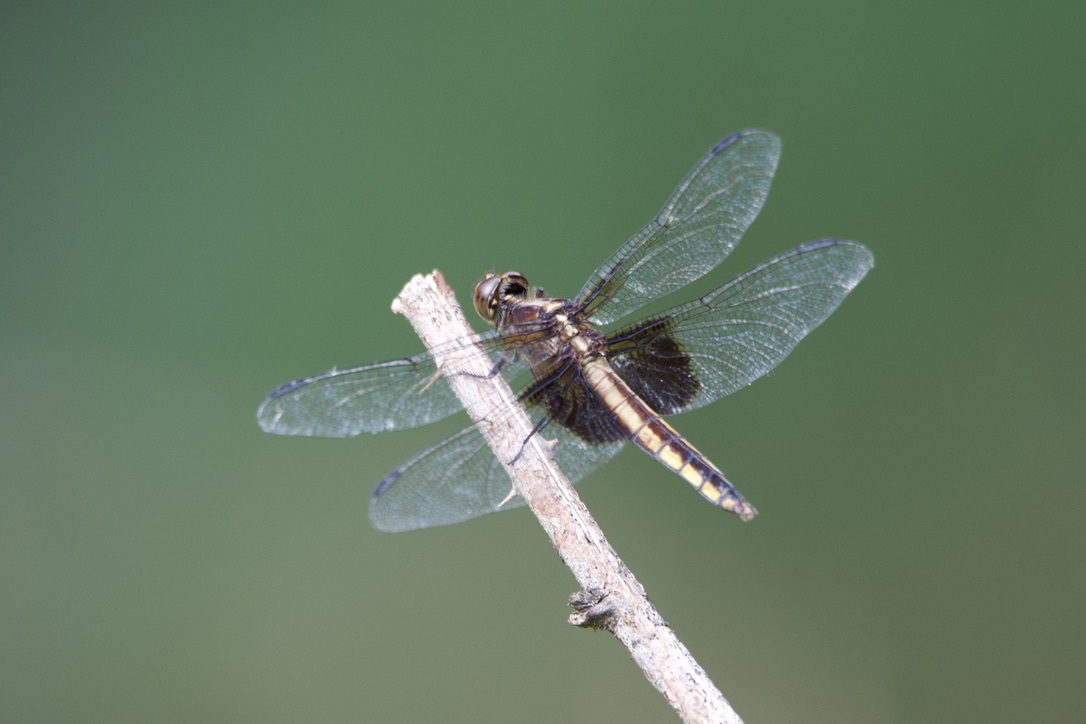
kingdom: Animalia
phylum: Arthropoda
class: Insecta
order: Odonata
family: Libellulidae
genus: Libellula
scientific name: Libellula luctuosa
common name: Widow skimmer
